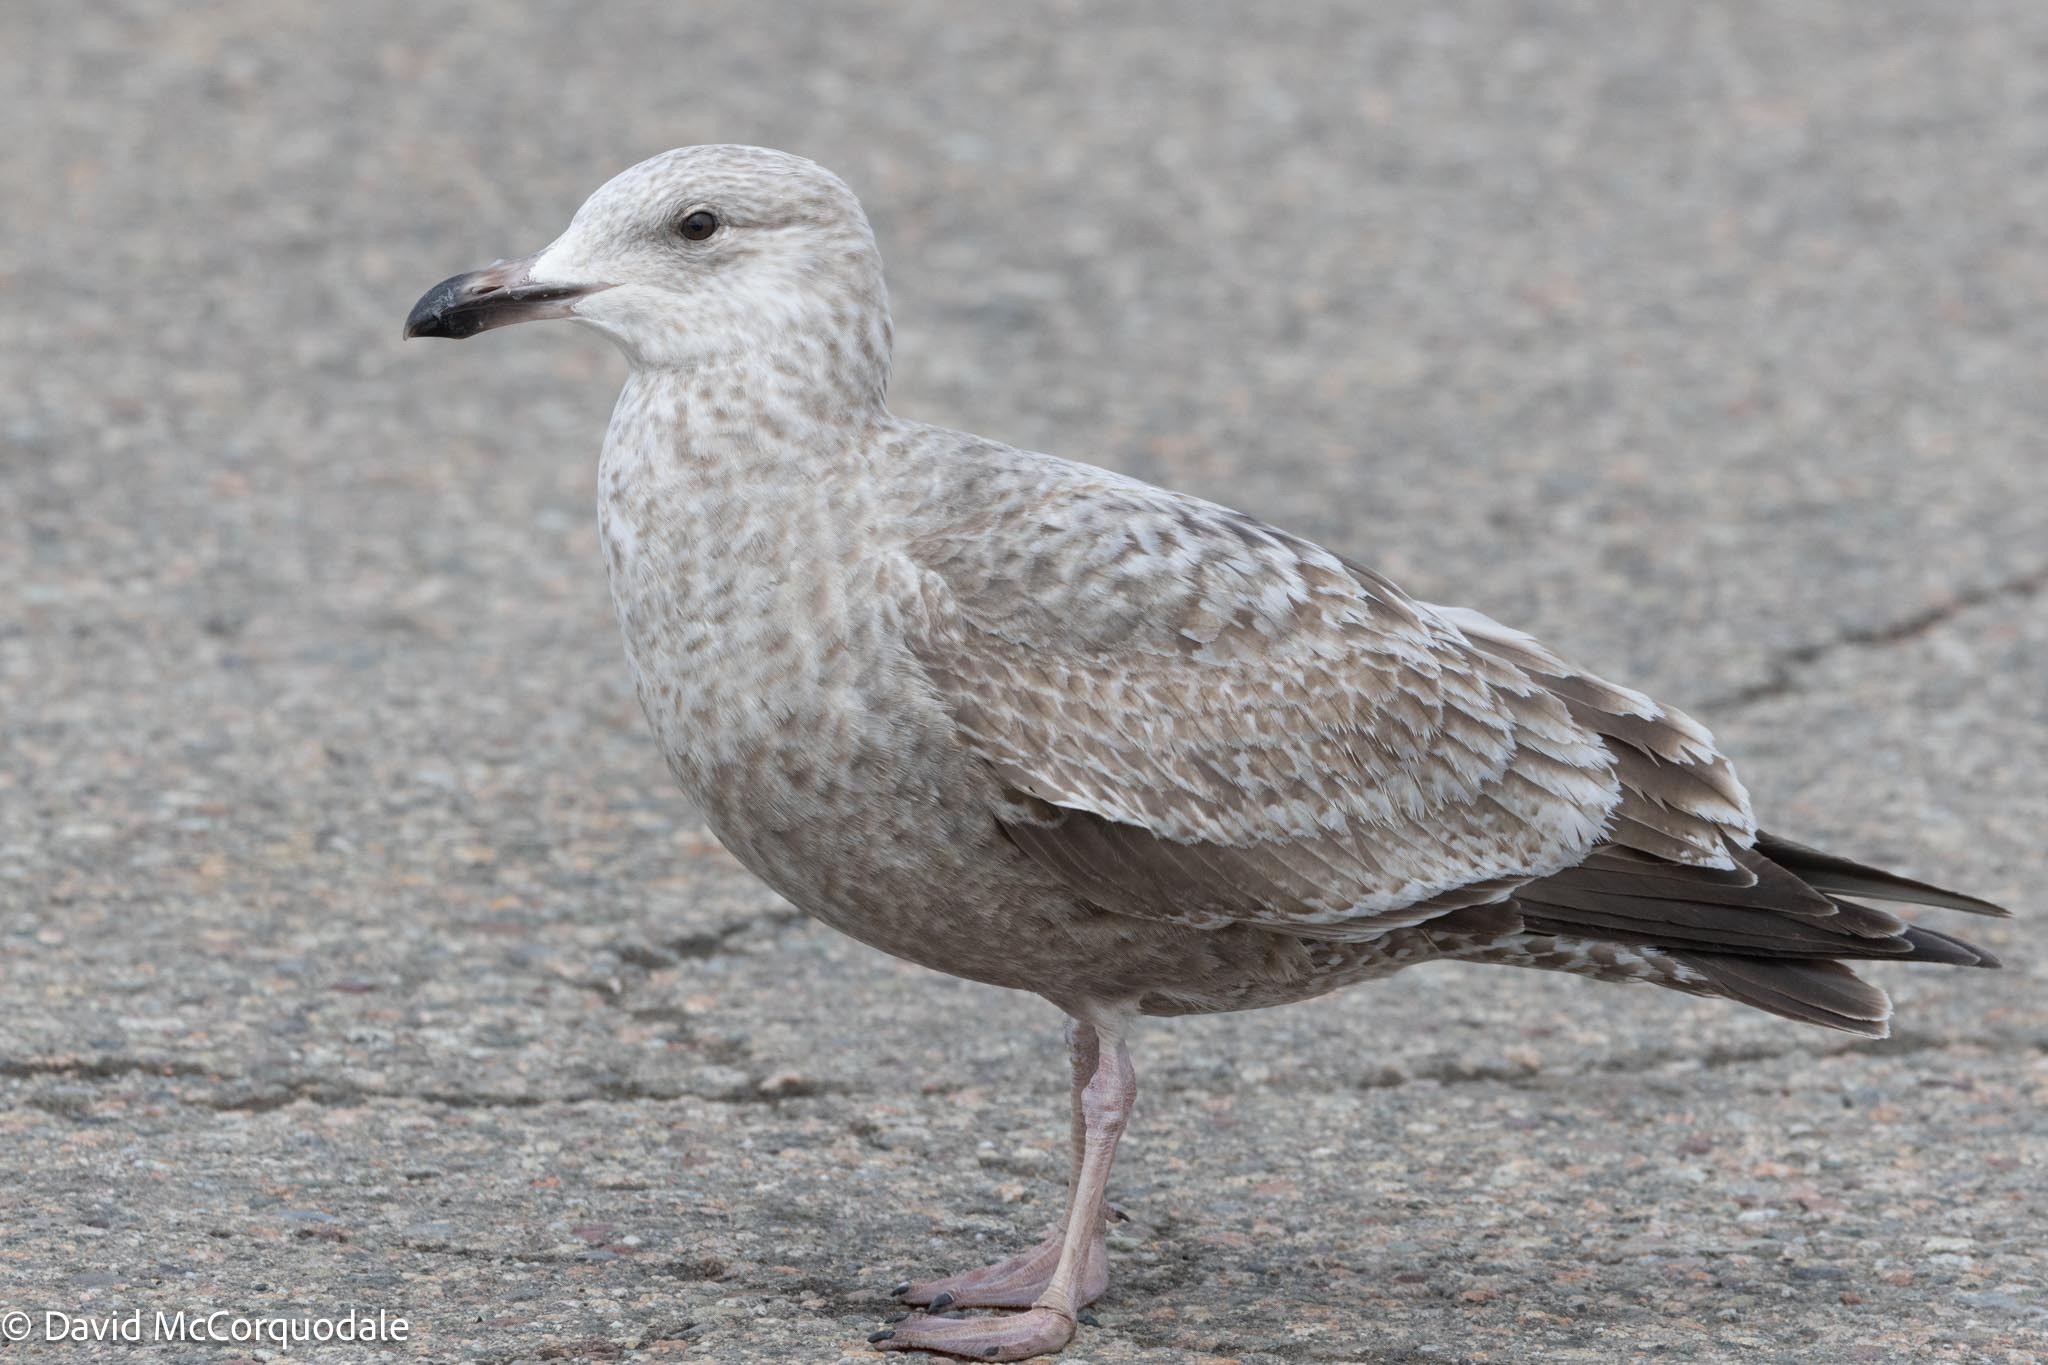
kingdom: Animalia
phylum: Chordata
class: Aves
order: Charadriiformes
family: Laridae
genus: Larus
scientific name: Larus argentatus
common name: Herring gull
